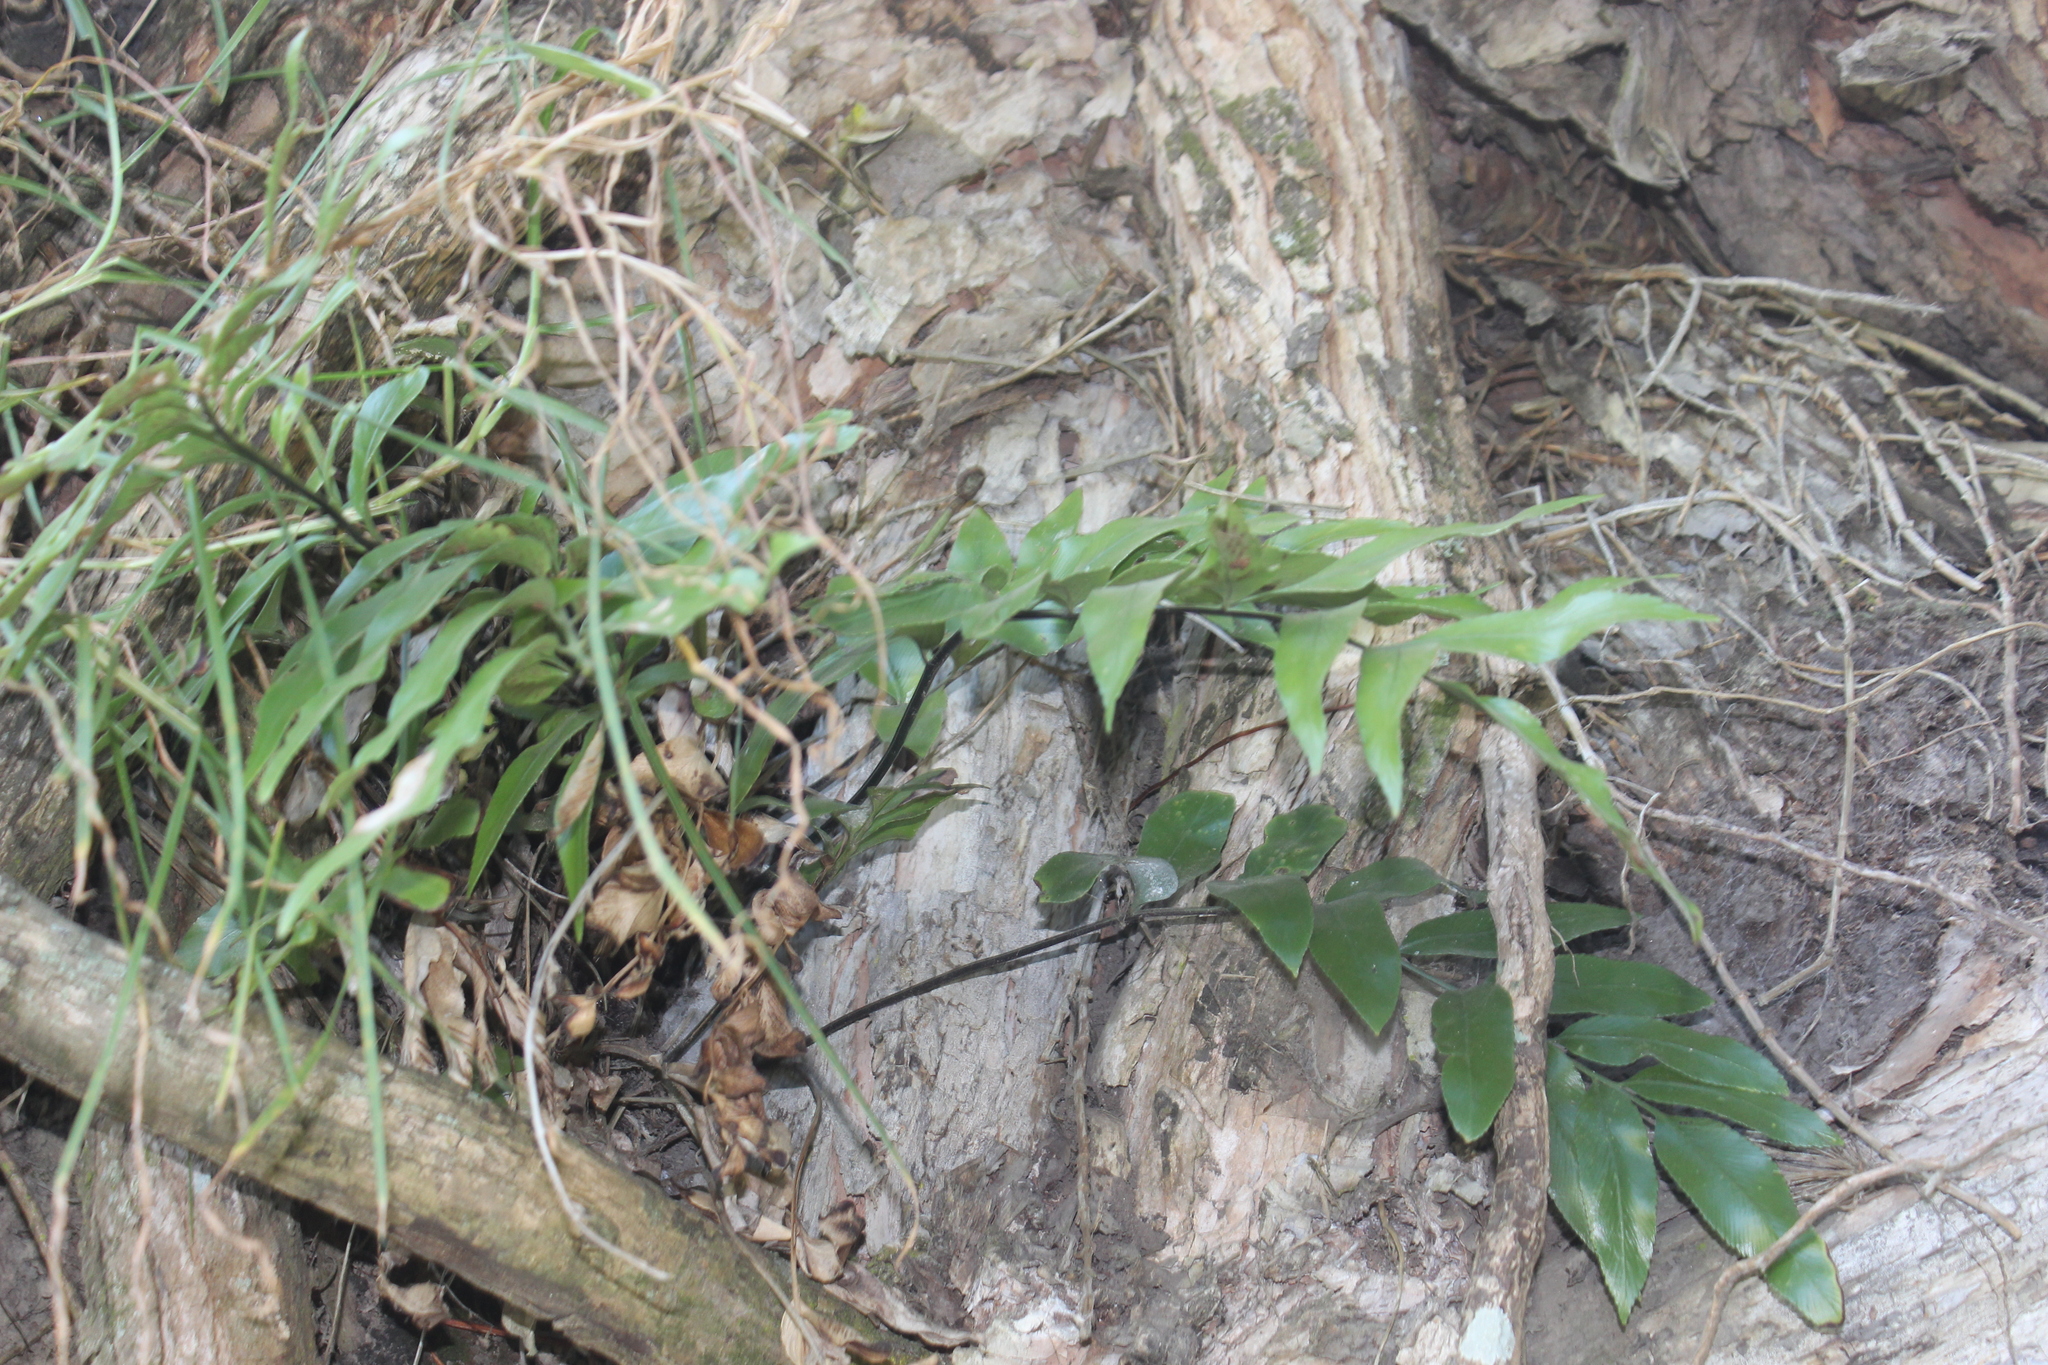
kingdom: Plantae
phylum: Tracheophyta
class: Polypodiopsida
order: Polypodiales
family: Aspleniaceae
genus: Asplenium
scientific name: Asplenium oblongifolium
